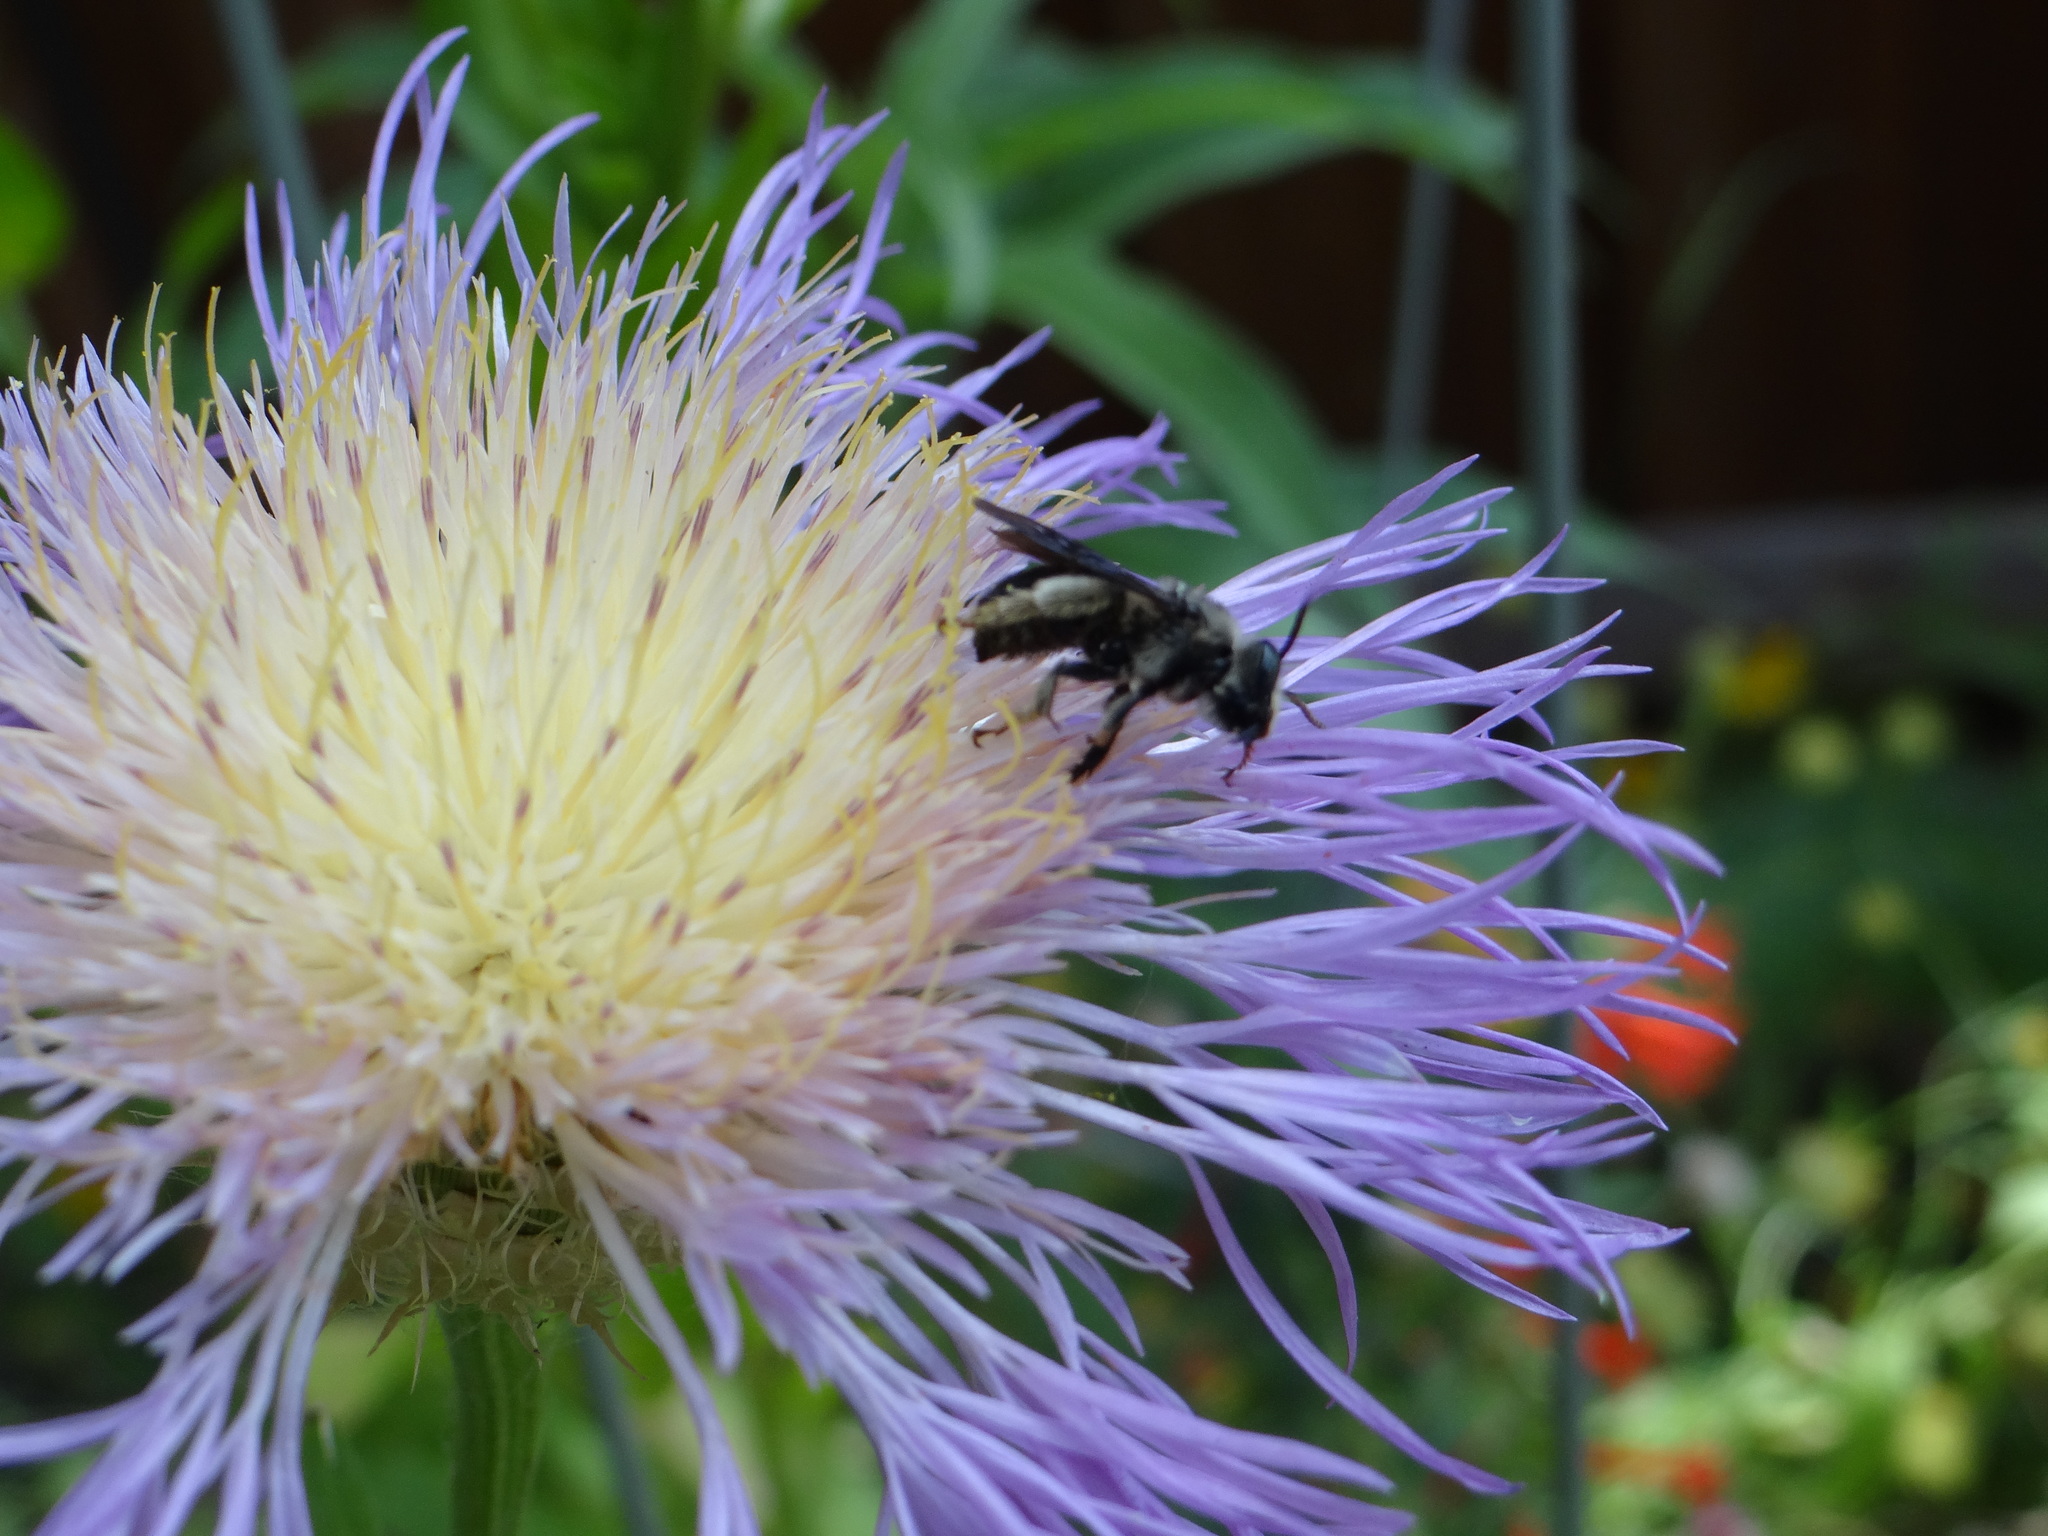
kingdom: Animalia
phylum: Arthropoda
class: Insecta
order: Hymenoptera
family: Apidae
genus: Melissodes
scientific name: Melissodes bimaculatus
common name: Two-spotted long-horned bee
